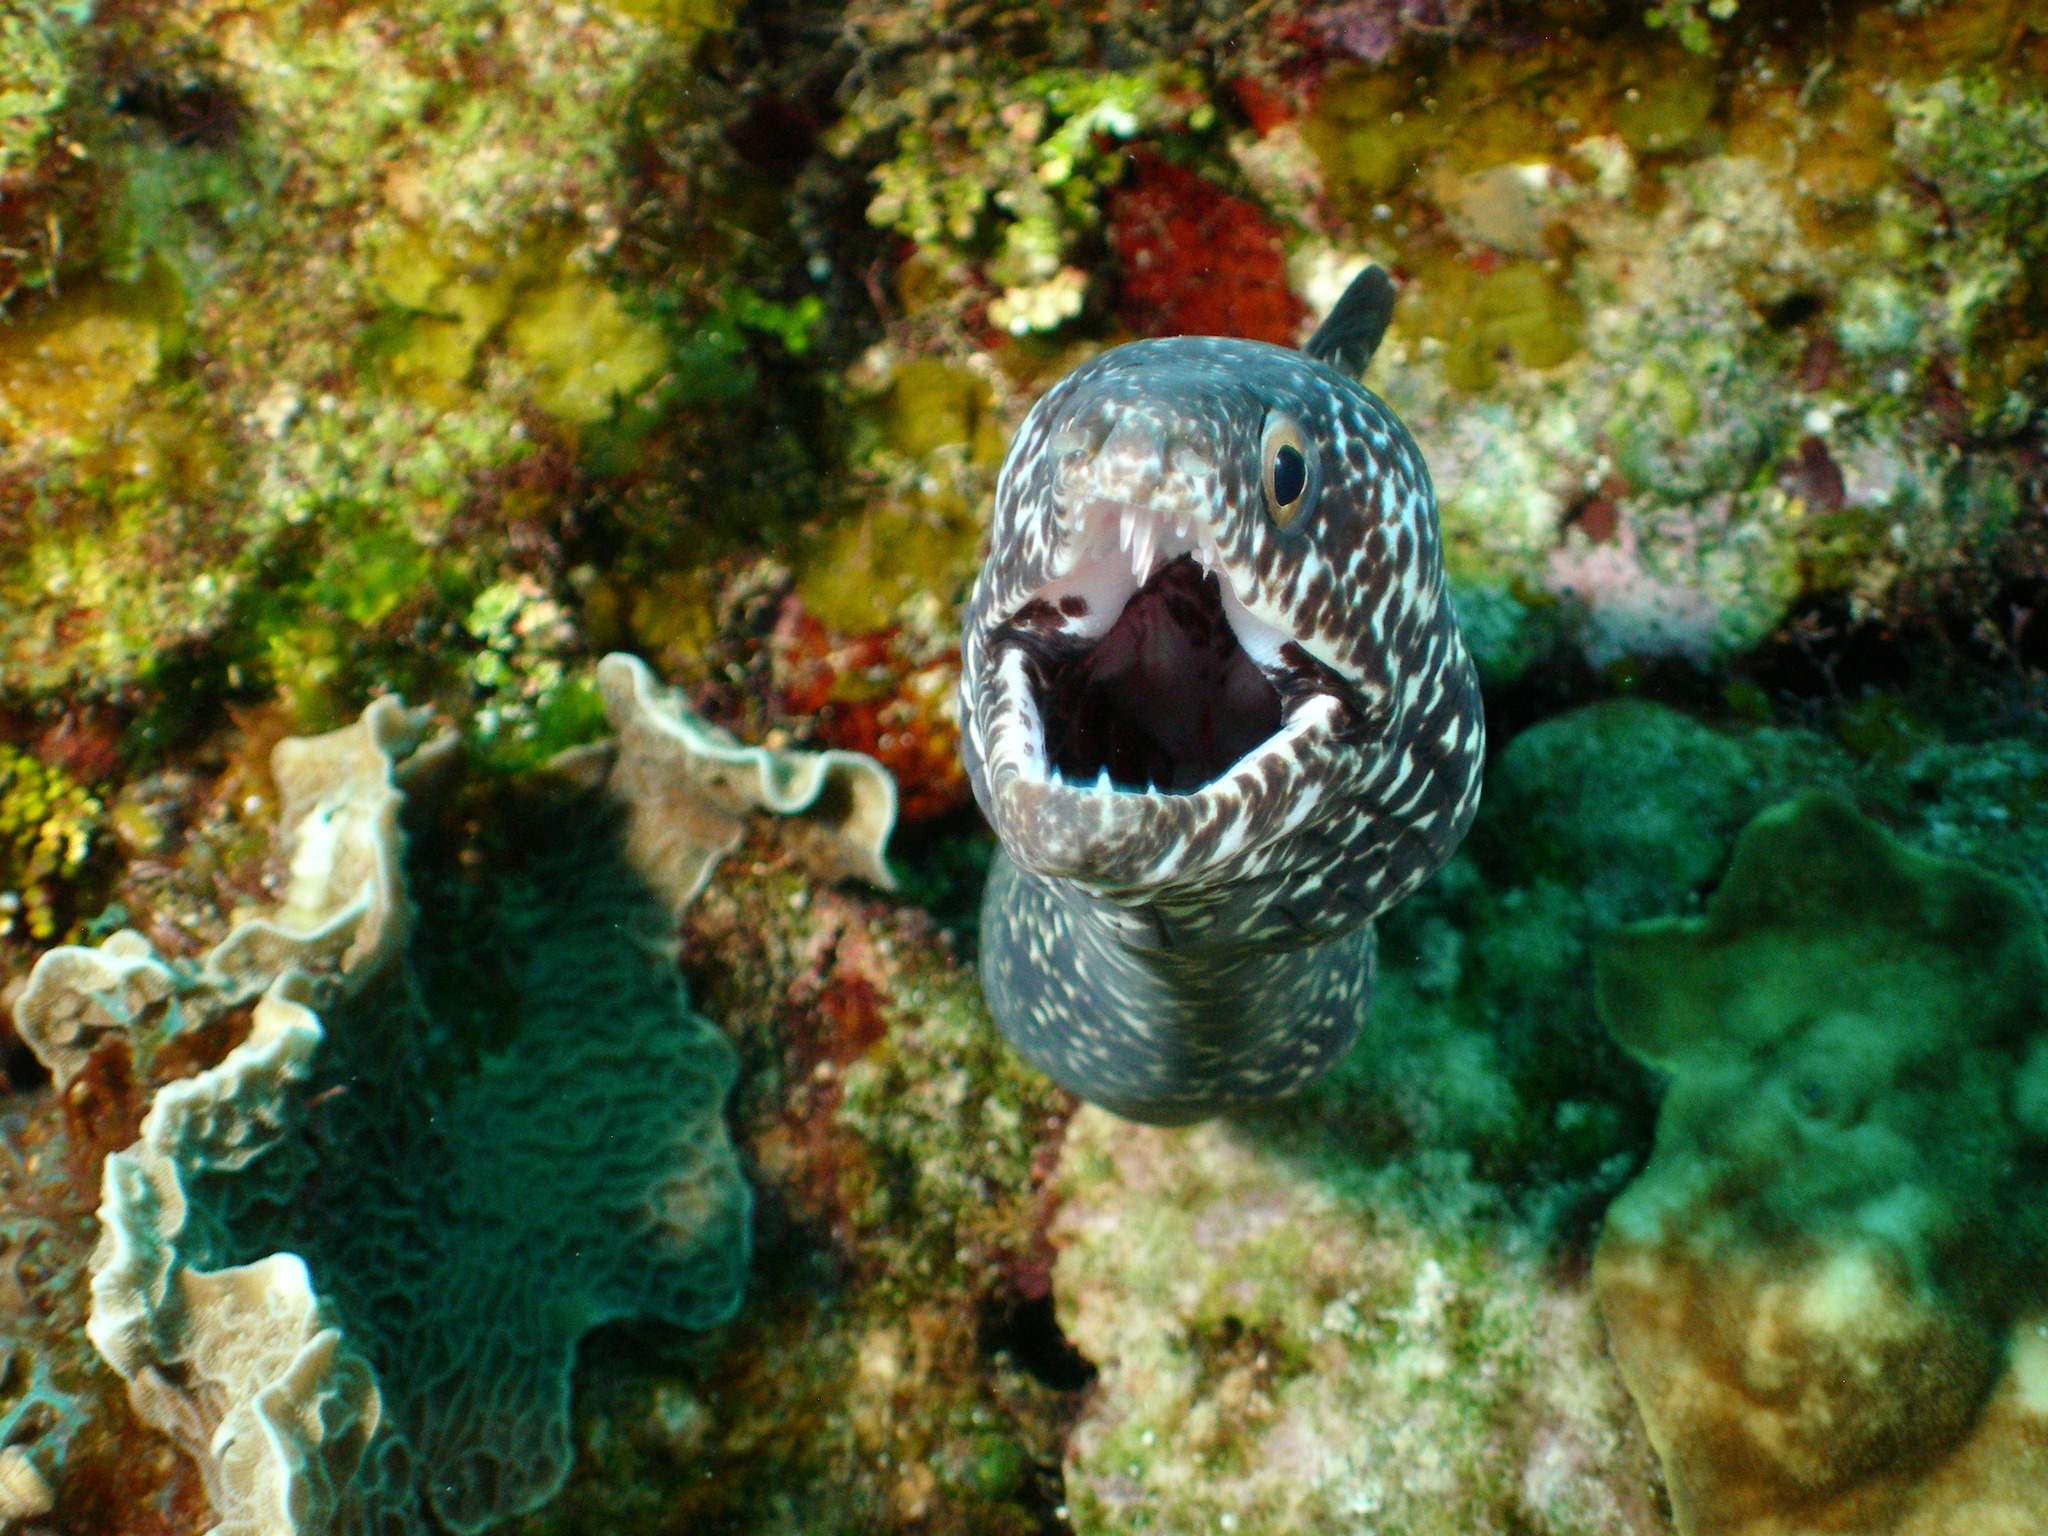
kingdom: Animalia
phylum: Chordata
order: Anguilliformes
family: Muraenidae
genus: Gymnothorax
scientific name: Gymnothorax moringa
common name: Spotted moray
